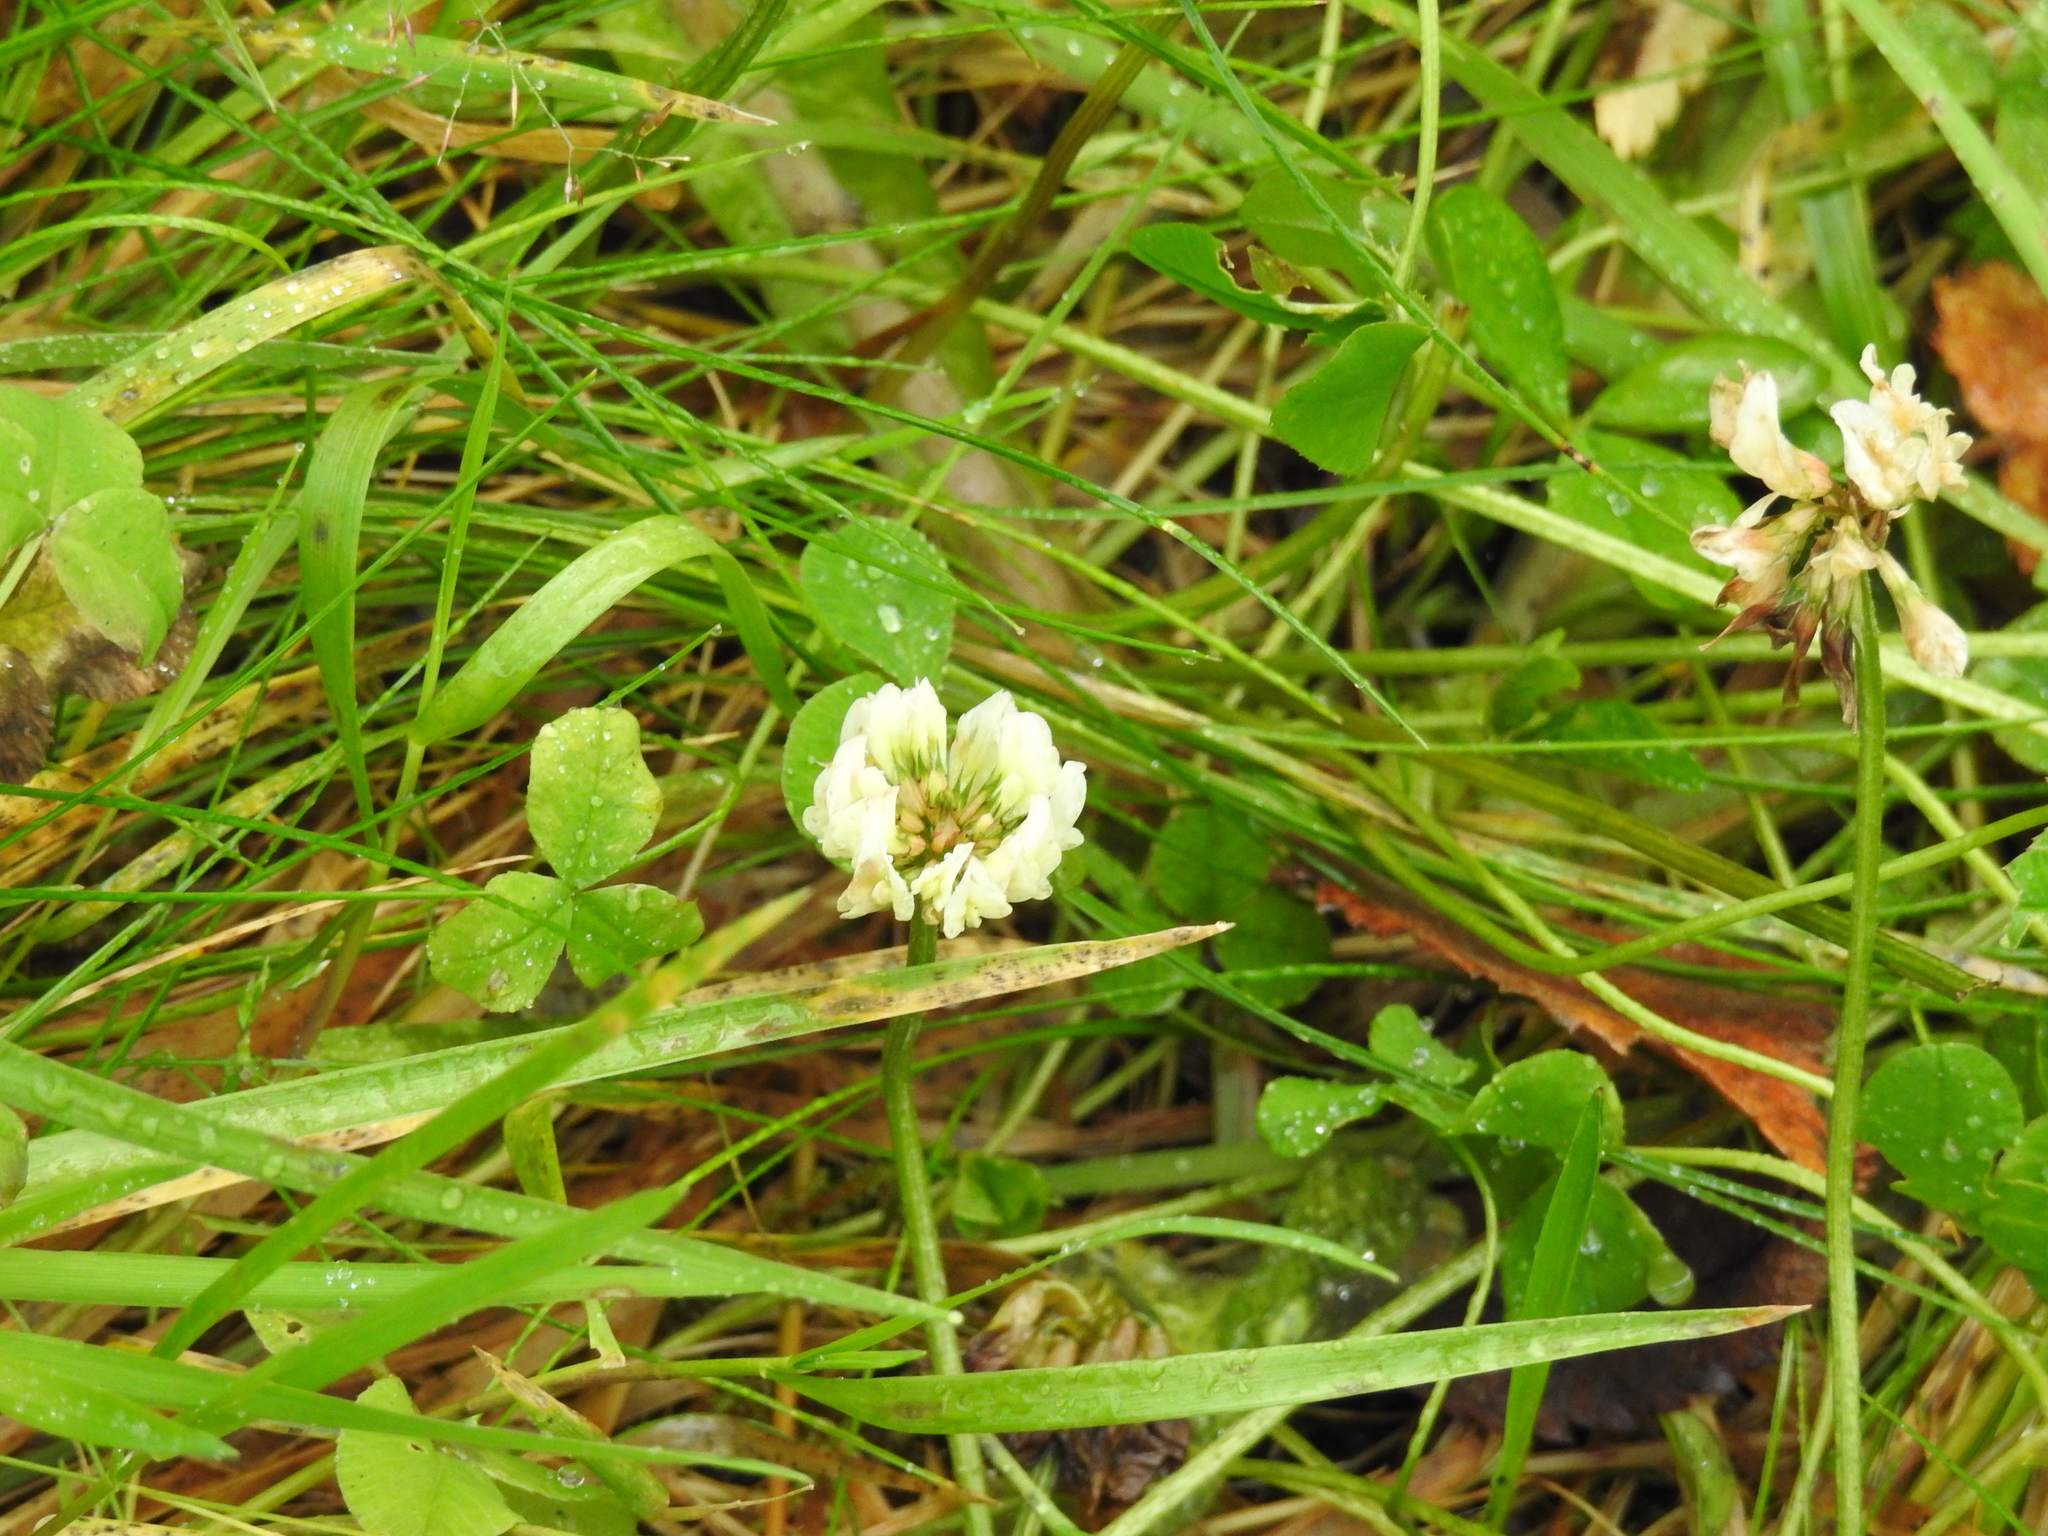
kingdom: Plantae
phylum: Tracheophyta
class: Magnoliopsida
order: Fabales
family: Fabaceae
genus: Trifolium
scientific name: Trifolium repens
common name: White clover
